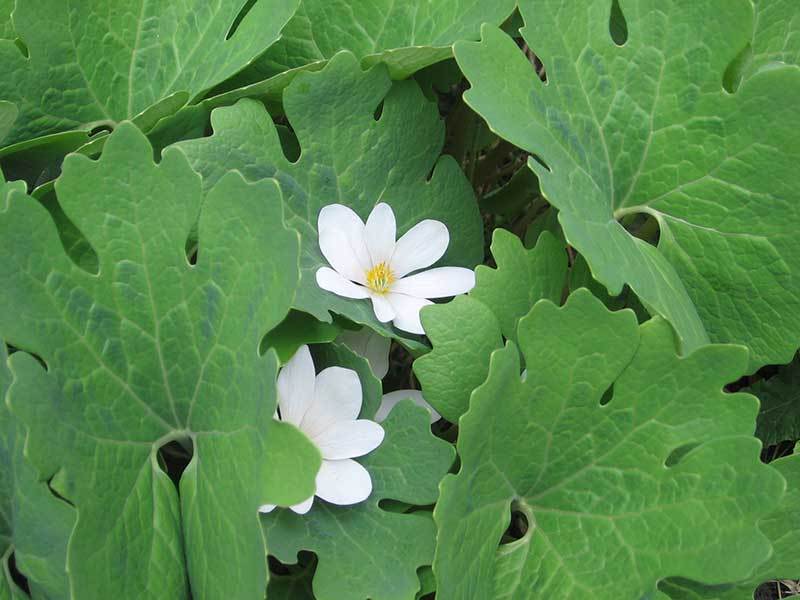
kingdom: Plantae
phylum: Tracheophyta
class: Magnoliopsida
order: Ranunculales
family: Papaveraceae
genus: Sanguinaria
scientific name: Sanguinaria canadensis
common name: Bloodroot
